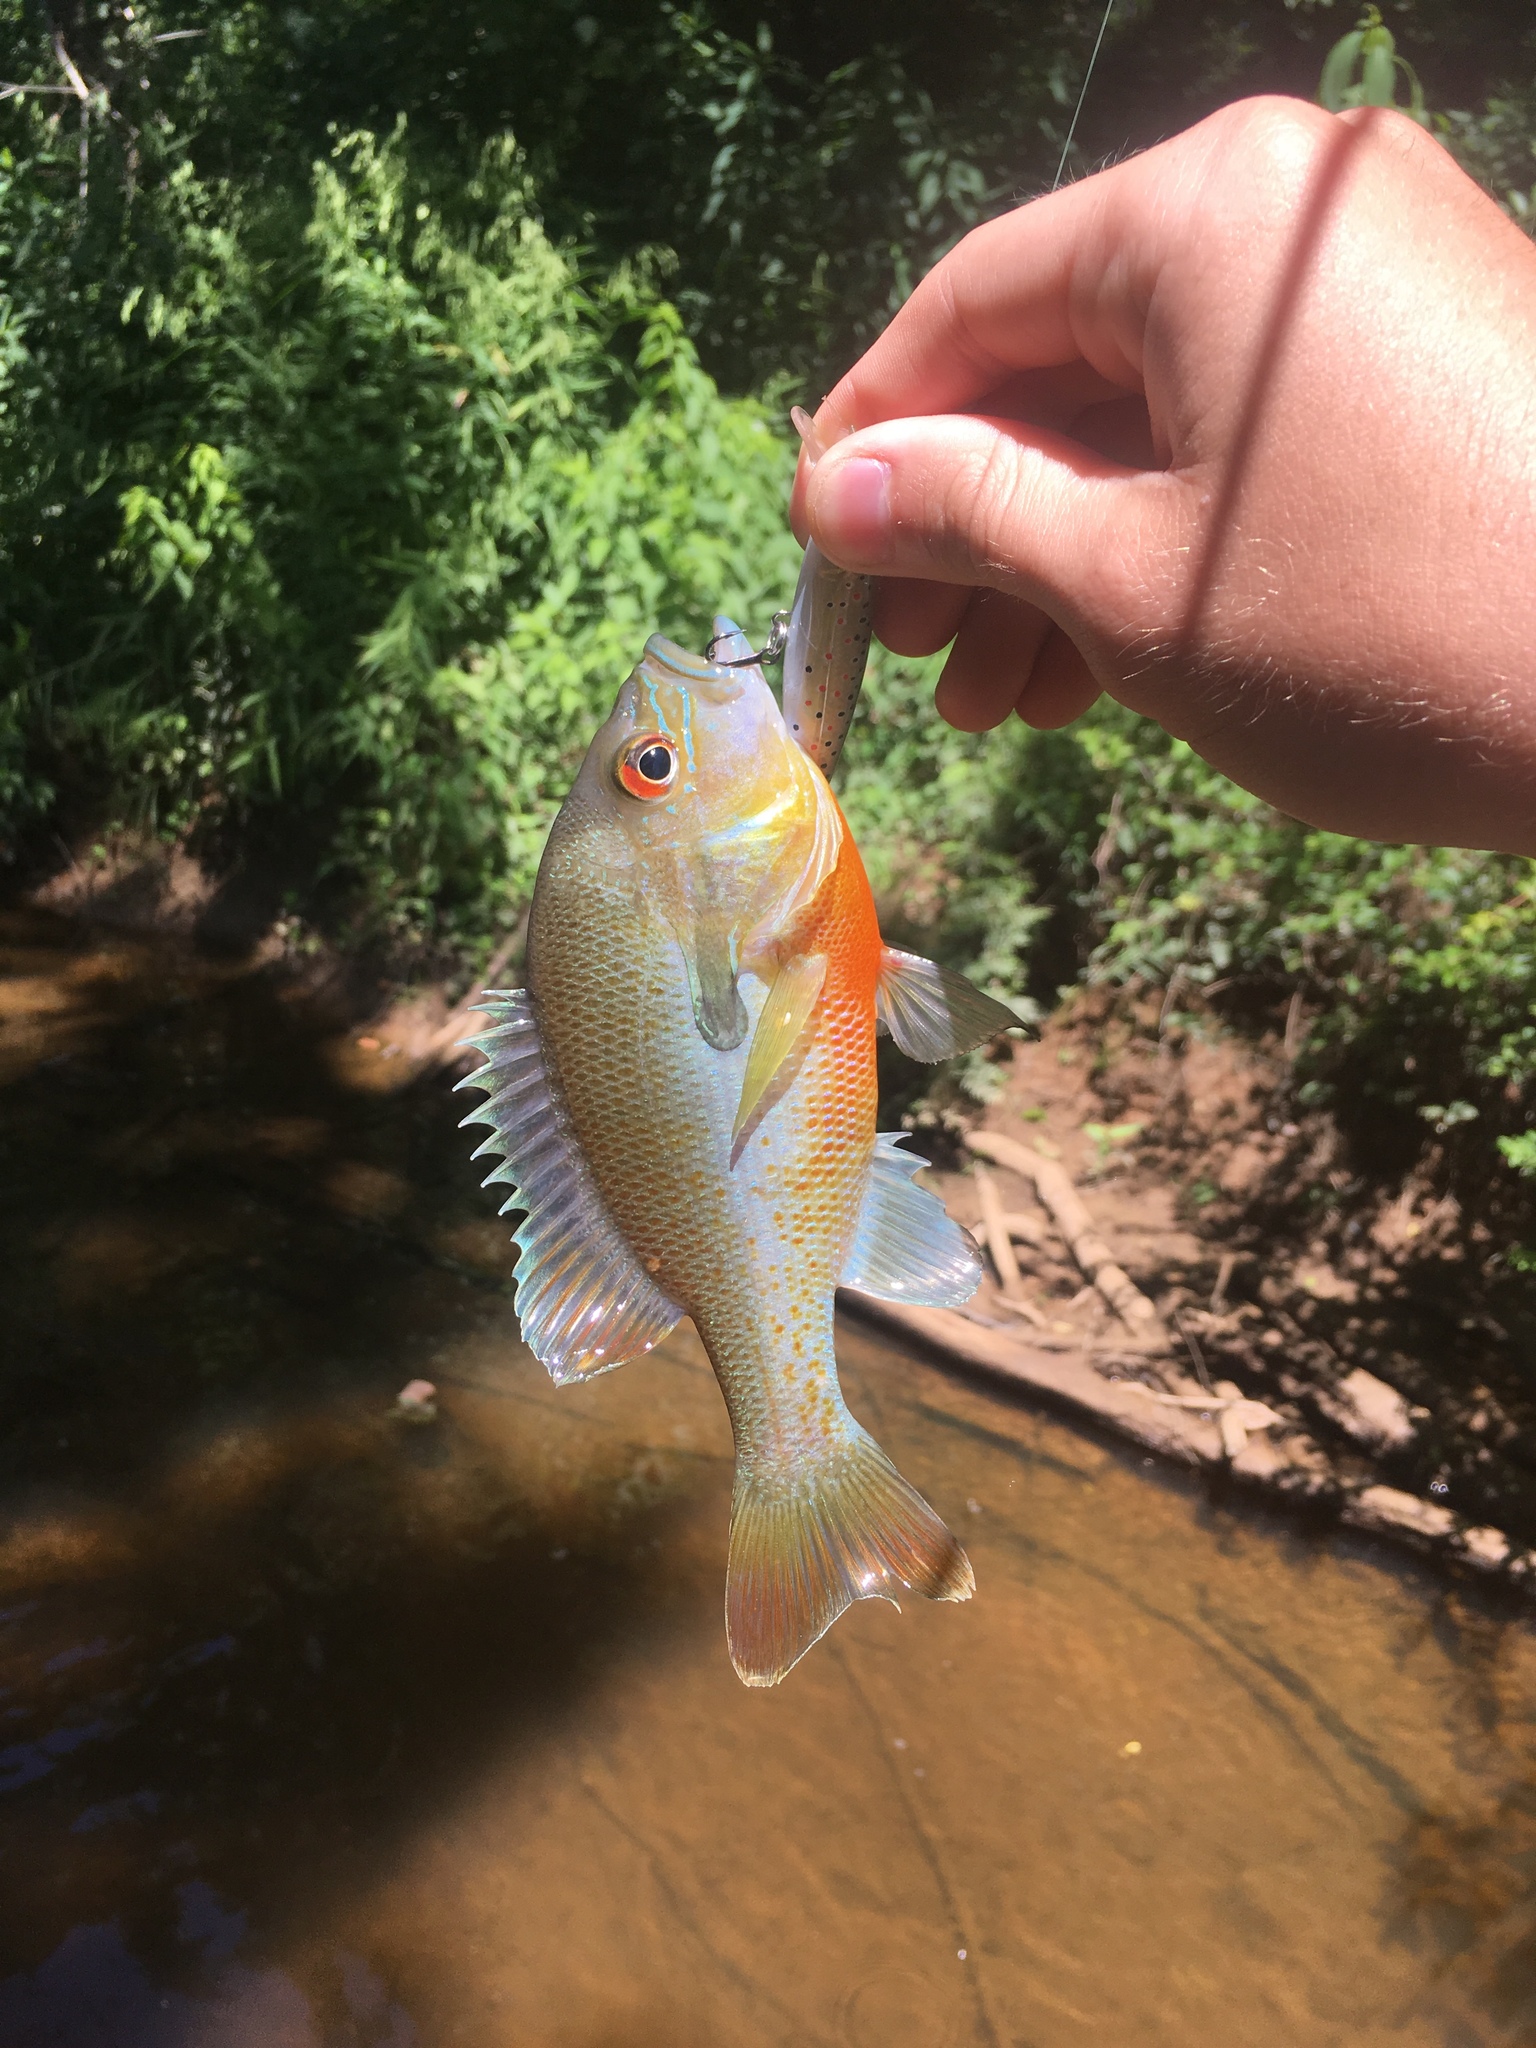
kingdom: Animalia
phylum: Chordata
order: Perciformes
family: Centrarchidae
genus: Lepomis
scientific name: Lepomis auritus
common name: Redbreast sunfish
